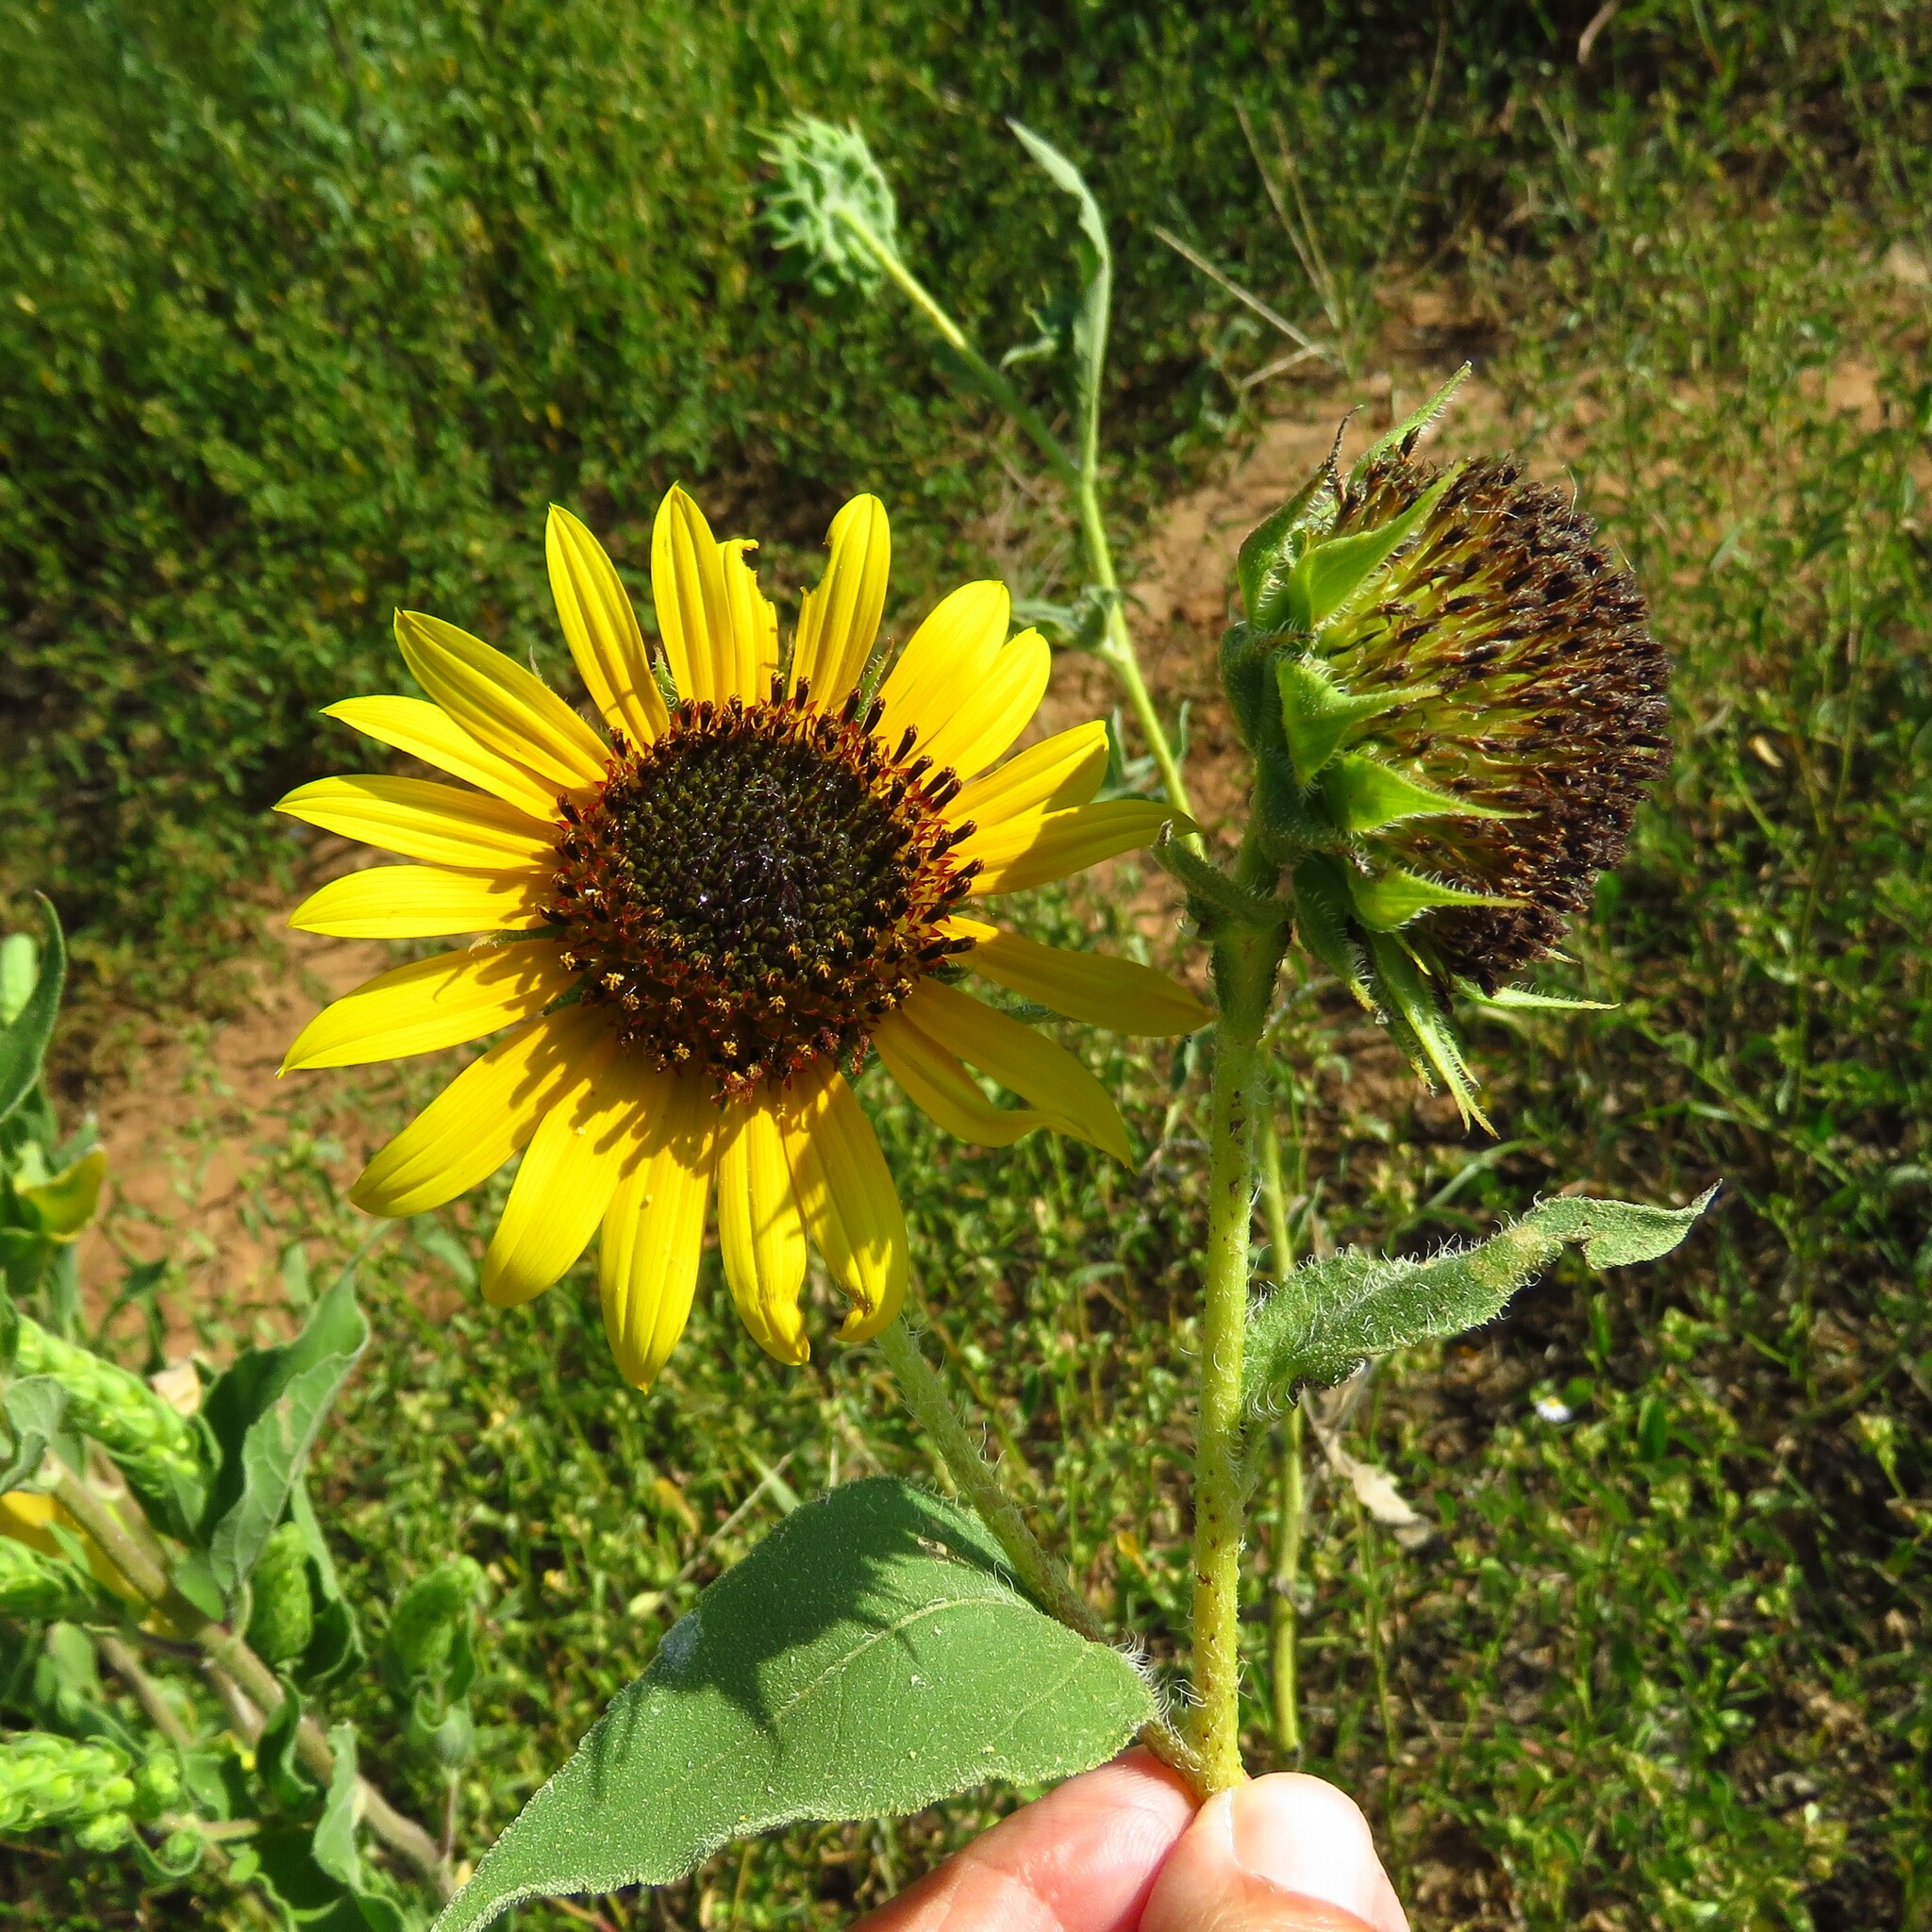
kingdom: Plantae
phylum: Tracheophyta
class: Magnoliopsida
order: Asterales
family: Asteraceae
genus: Helianthus
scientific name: Helianthus annuus
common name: Sunflower
